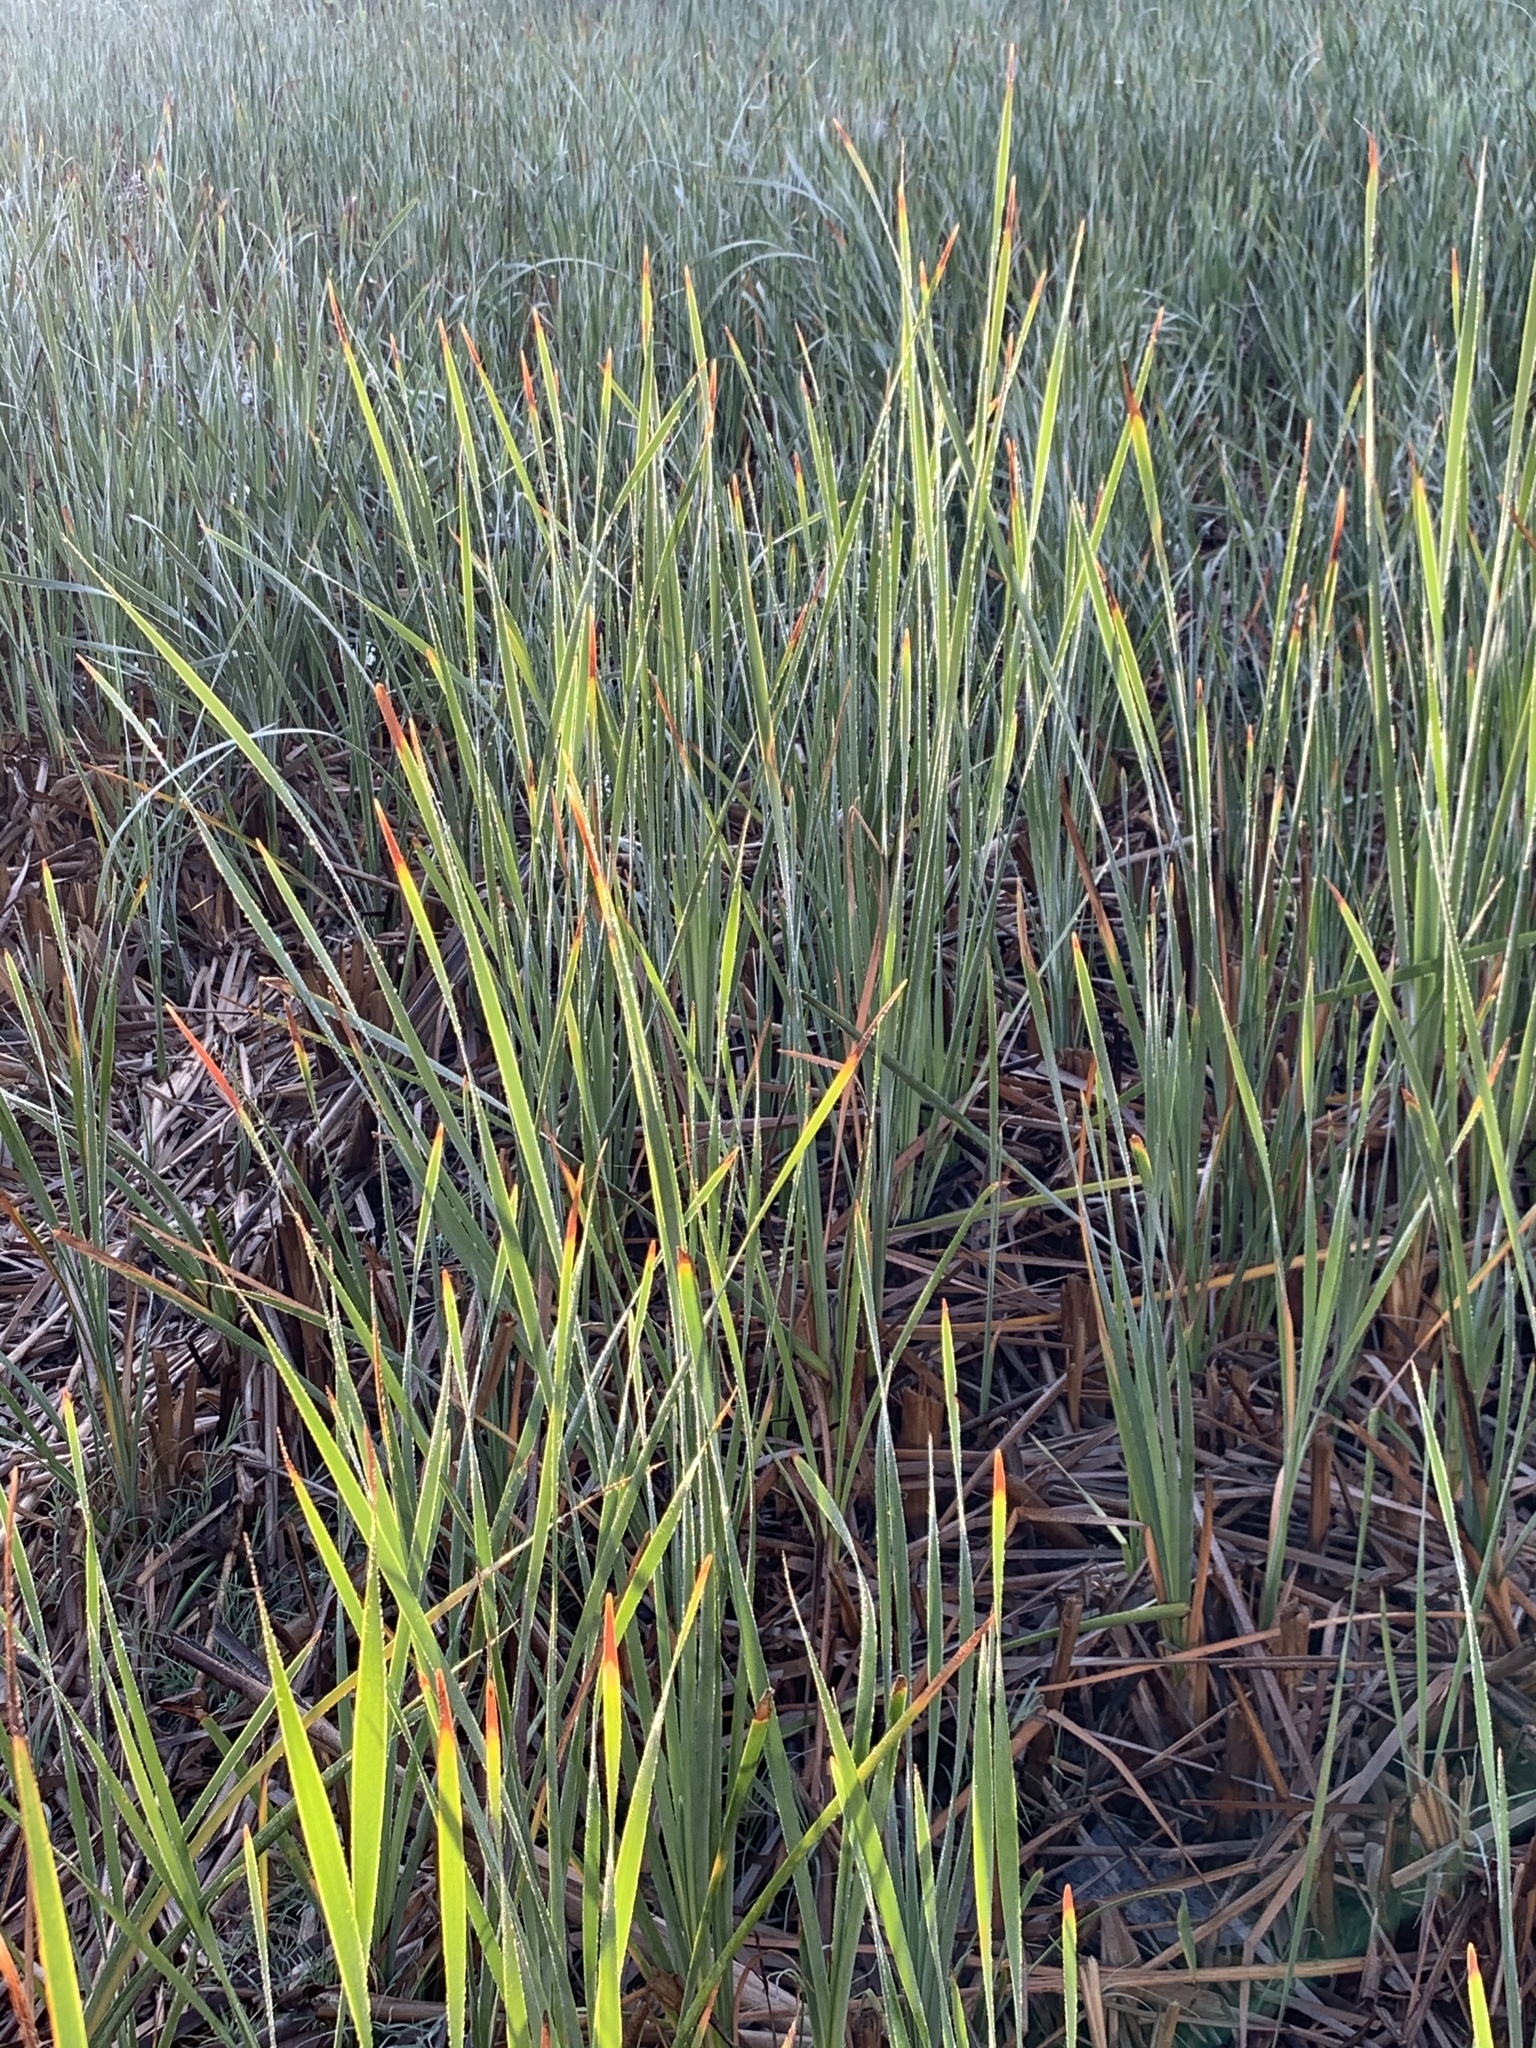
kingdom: Plantae
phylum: Tracheophyta
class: Liliopsida
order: Poales
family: Typhaceae
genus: Typha
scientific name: Typha capensis
